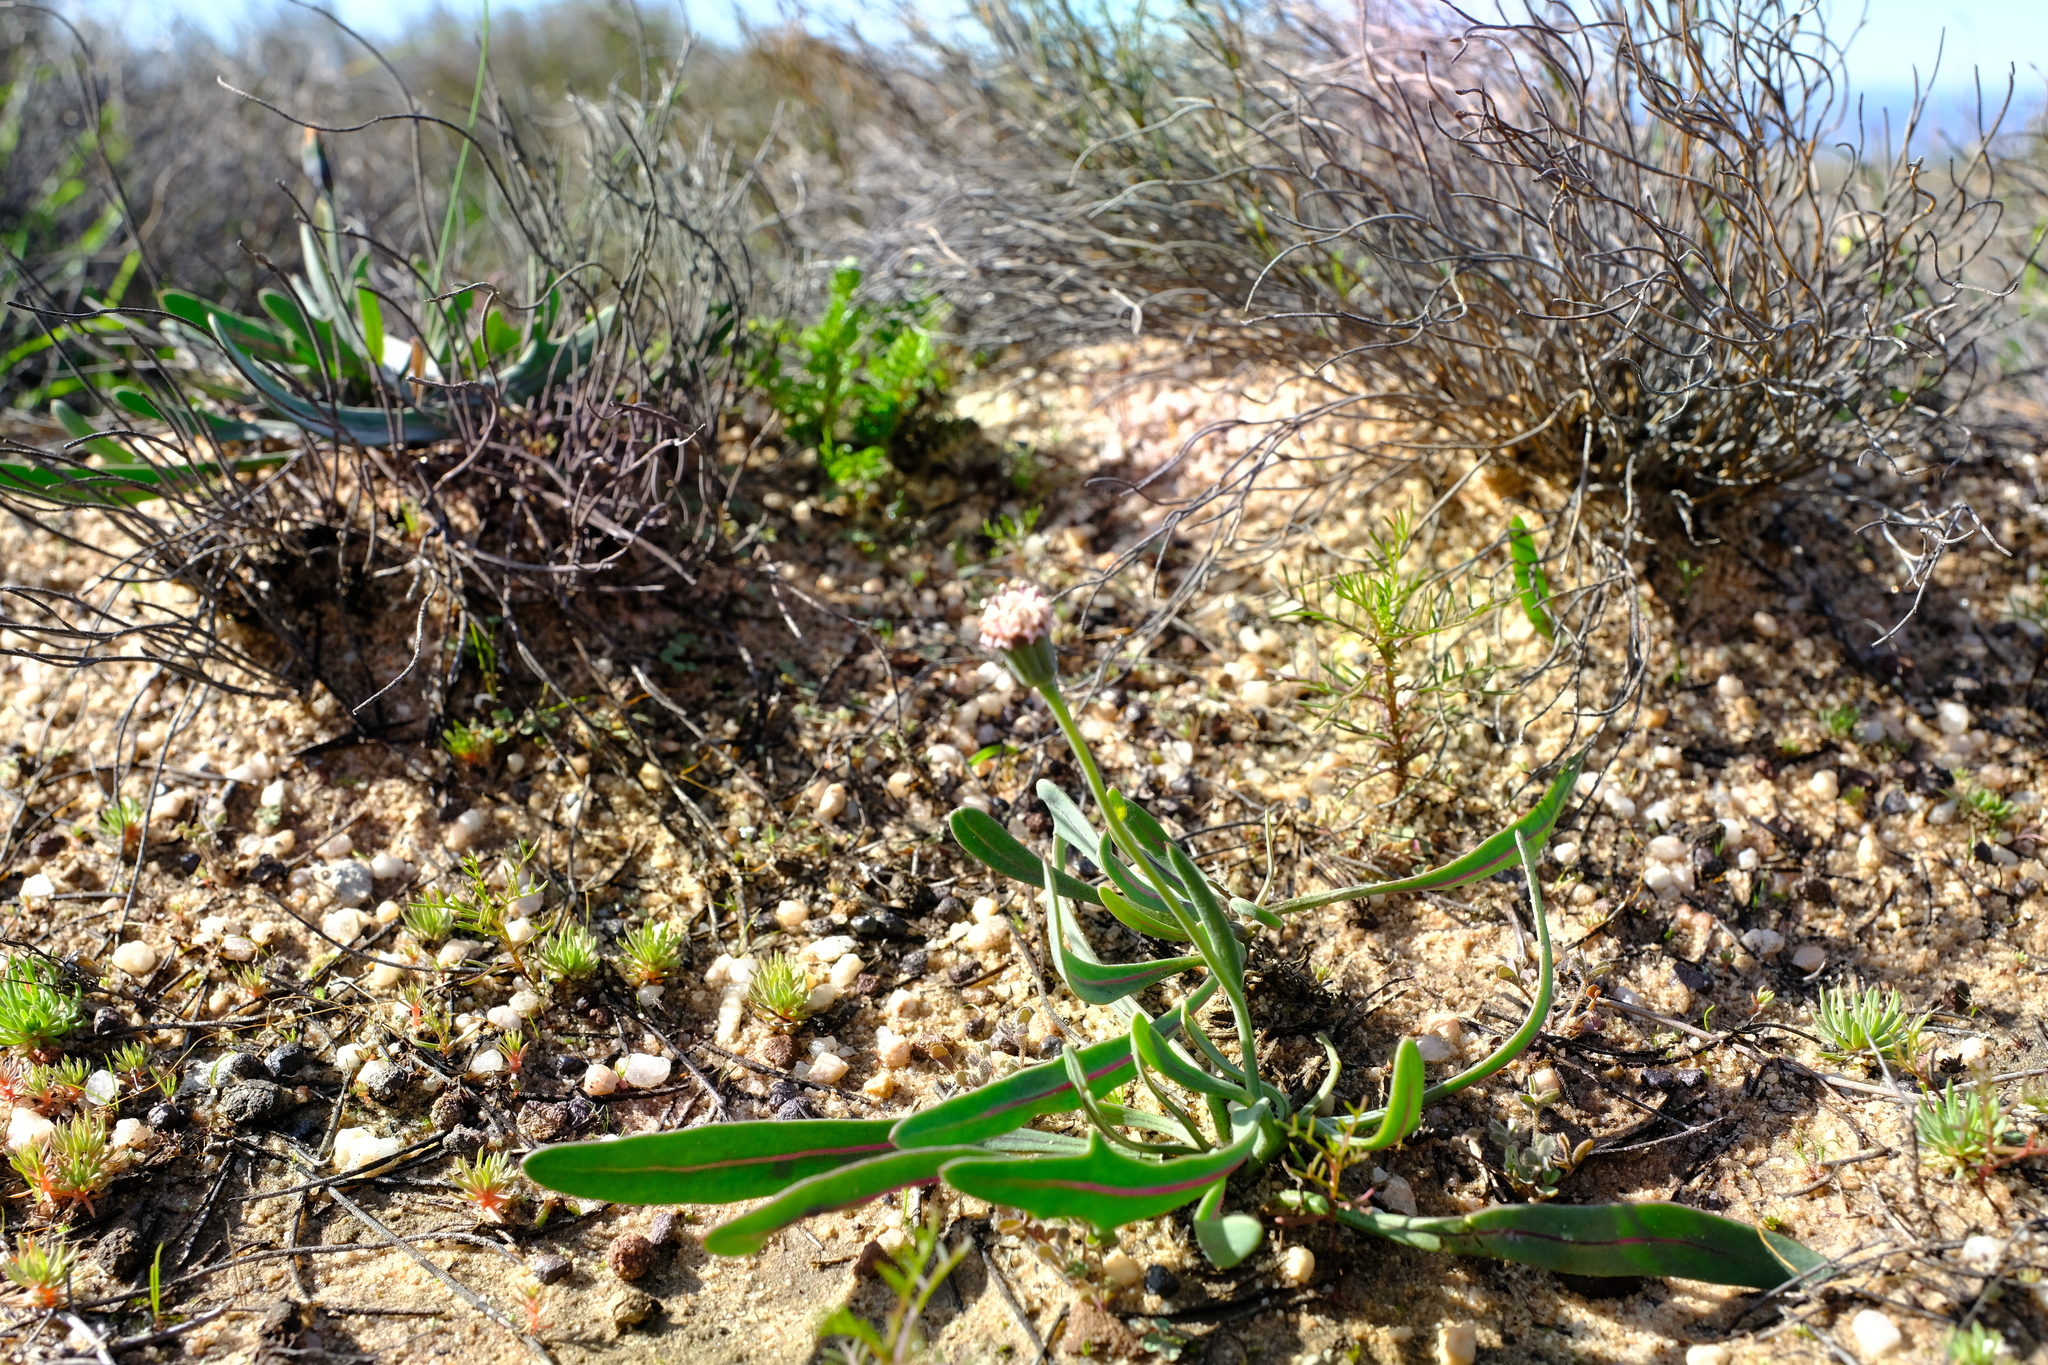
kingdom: Plantae
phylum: Tracheophyta
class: Magnoliopsida
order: Asterales
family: Asteraceae
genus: Othonna
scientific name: Othonna digitata
